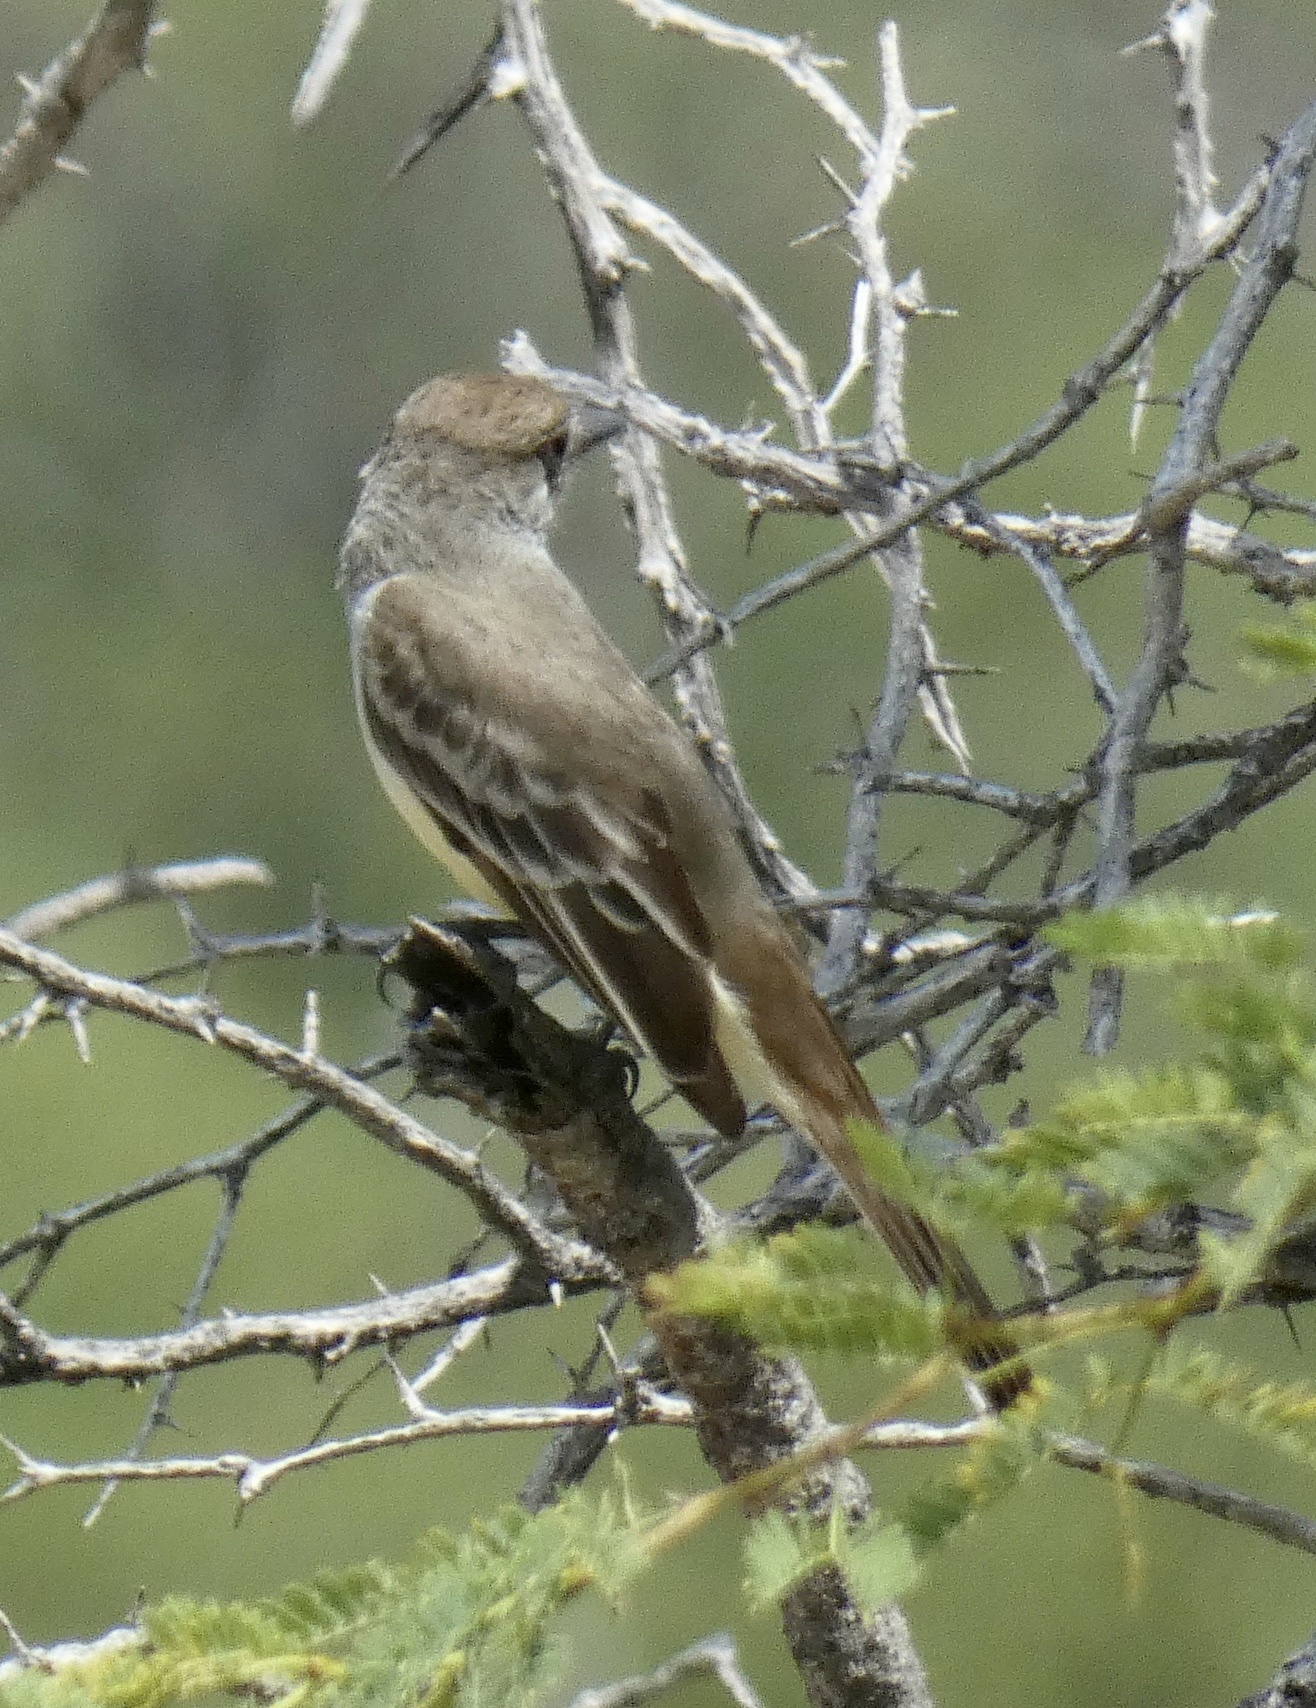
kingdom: Animalia
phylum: Chordata
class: Aves
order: Passeriformes
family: Tyrannidae
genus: Myiarchus
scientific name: Myiarchus tyrannulus
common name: Brown-crested flycatcher
